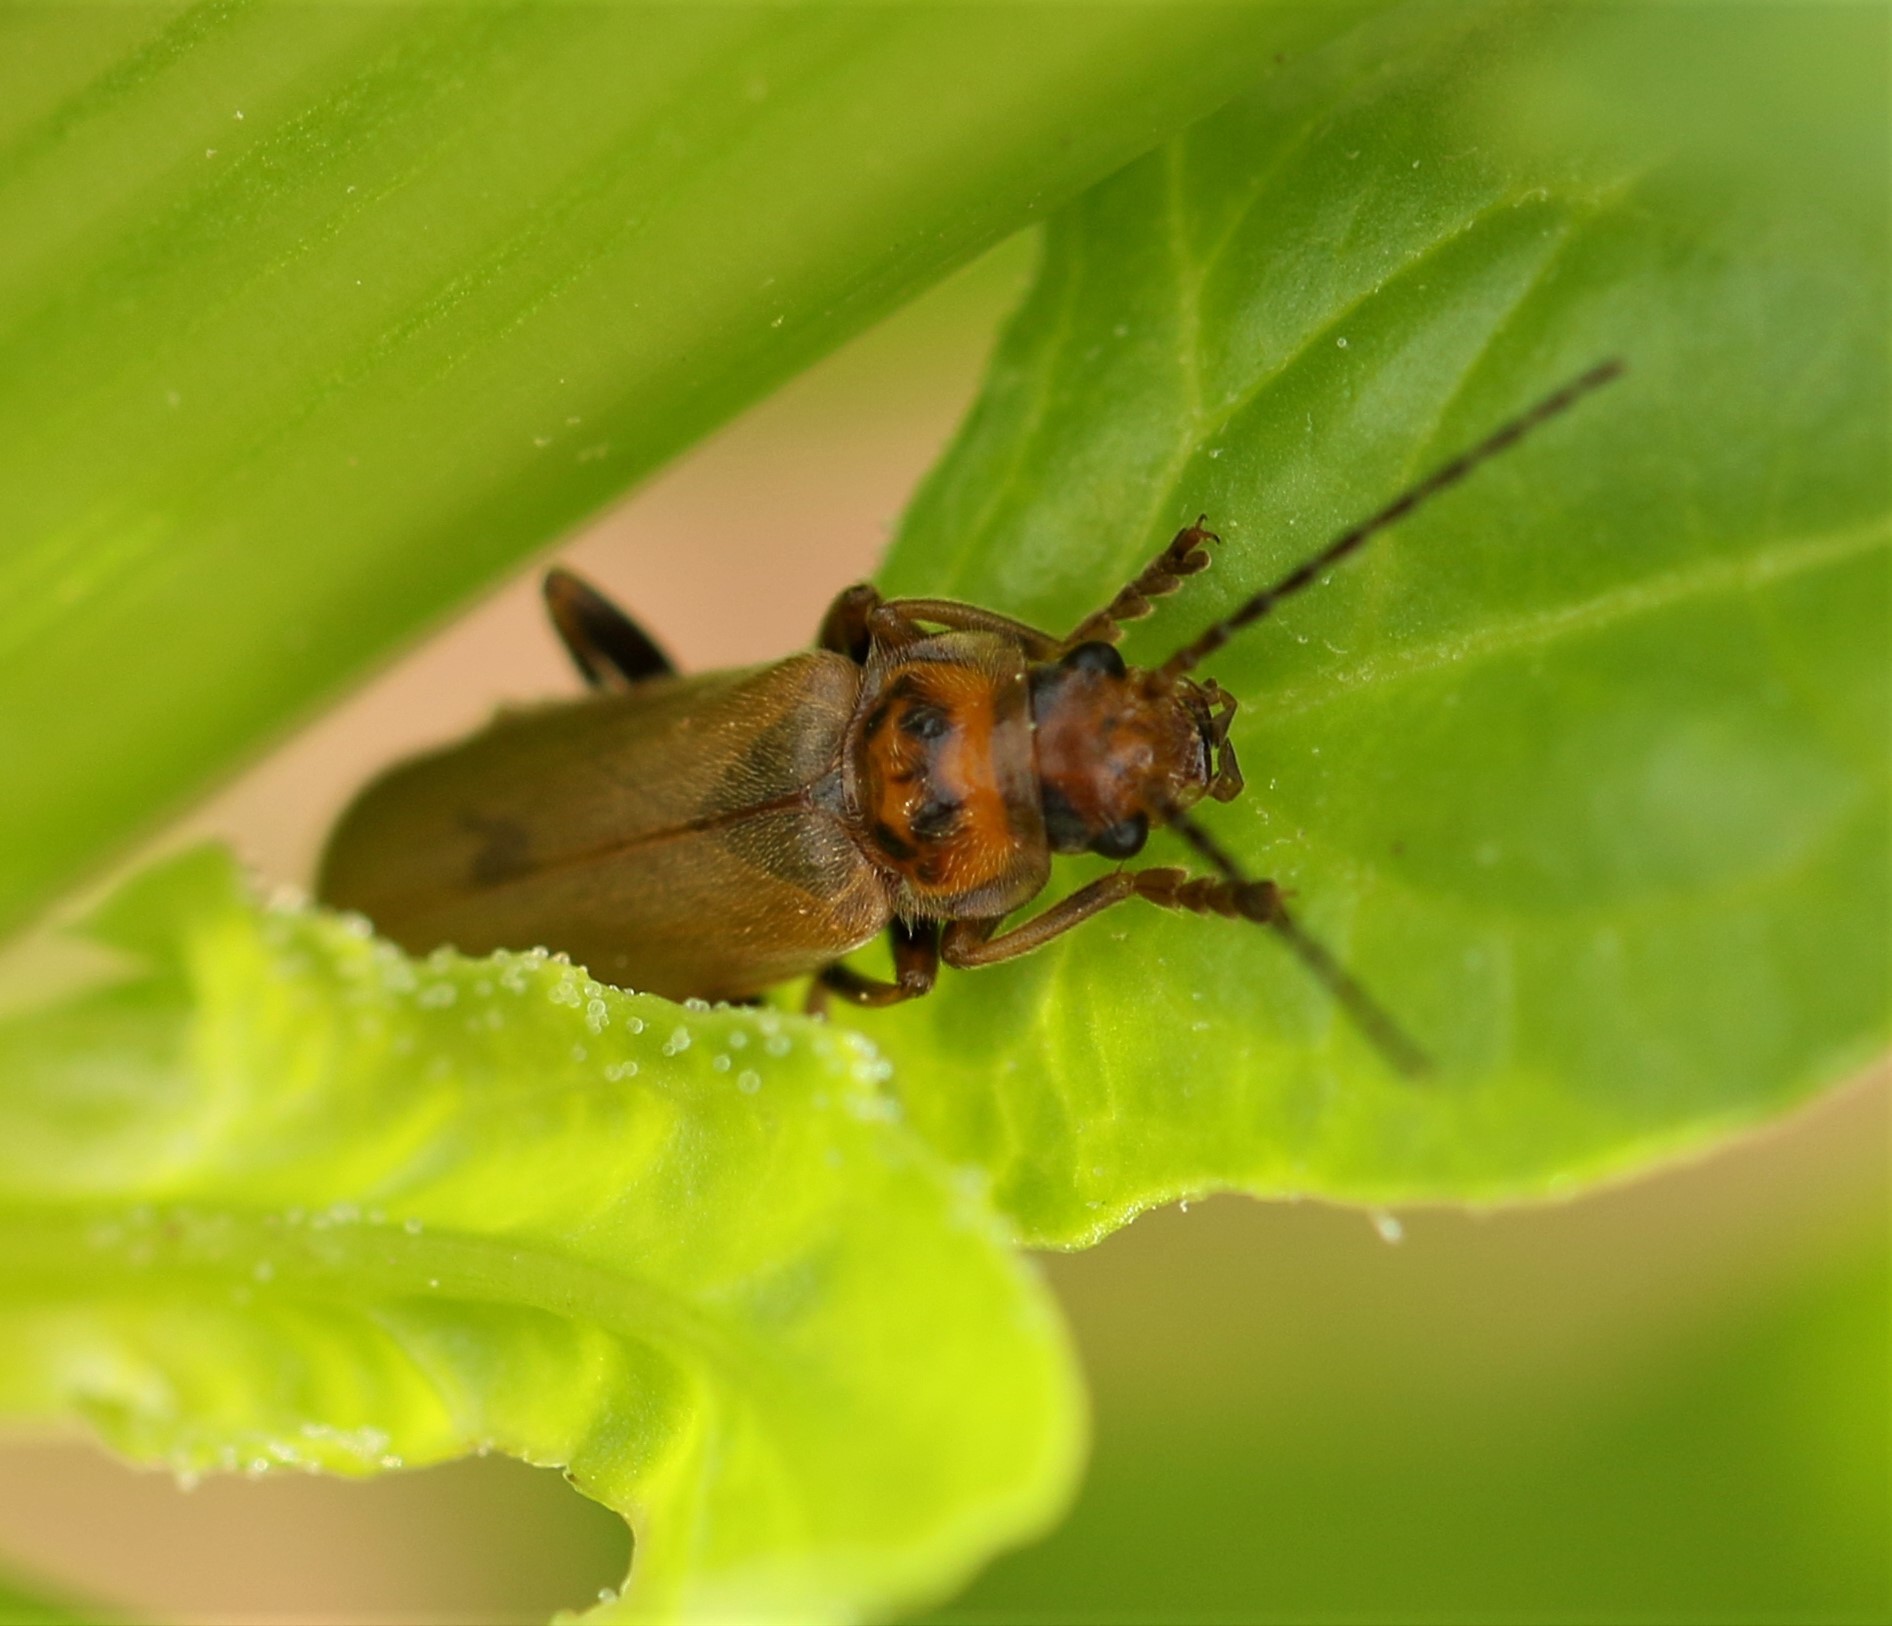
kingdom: Animalia
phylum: Arthropoda
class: Insecta
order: Coleoptera
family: Cantharidae
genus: Cantharis
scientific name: Cantharis rufa
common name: Red-spotted soldier beetle
